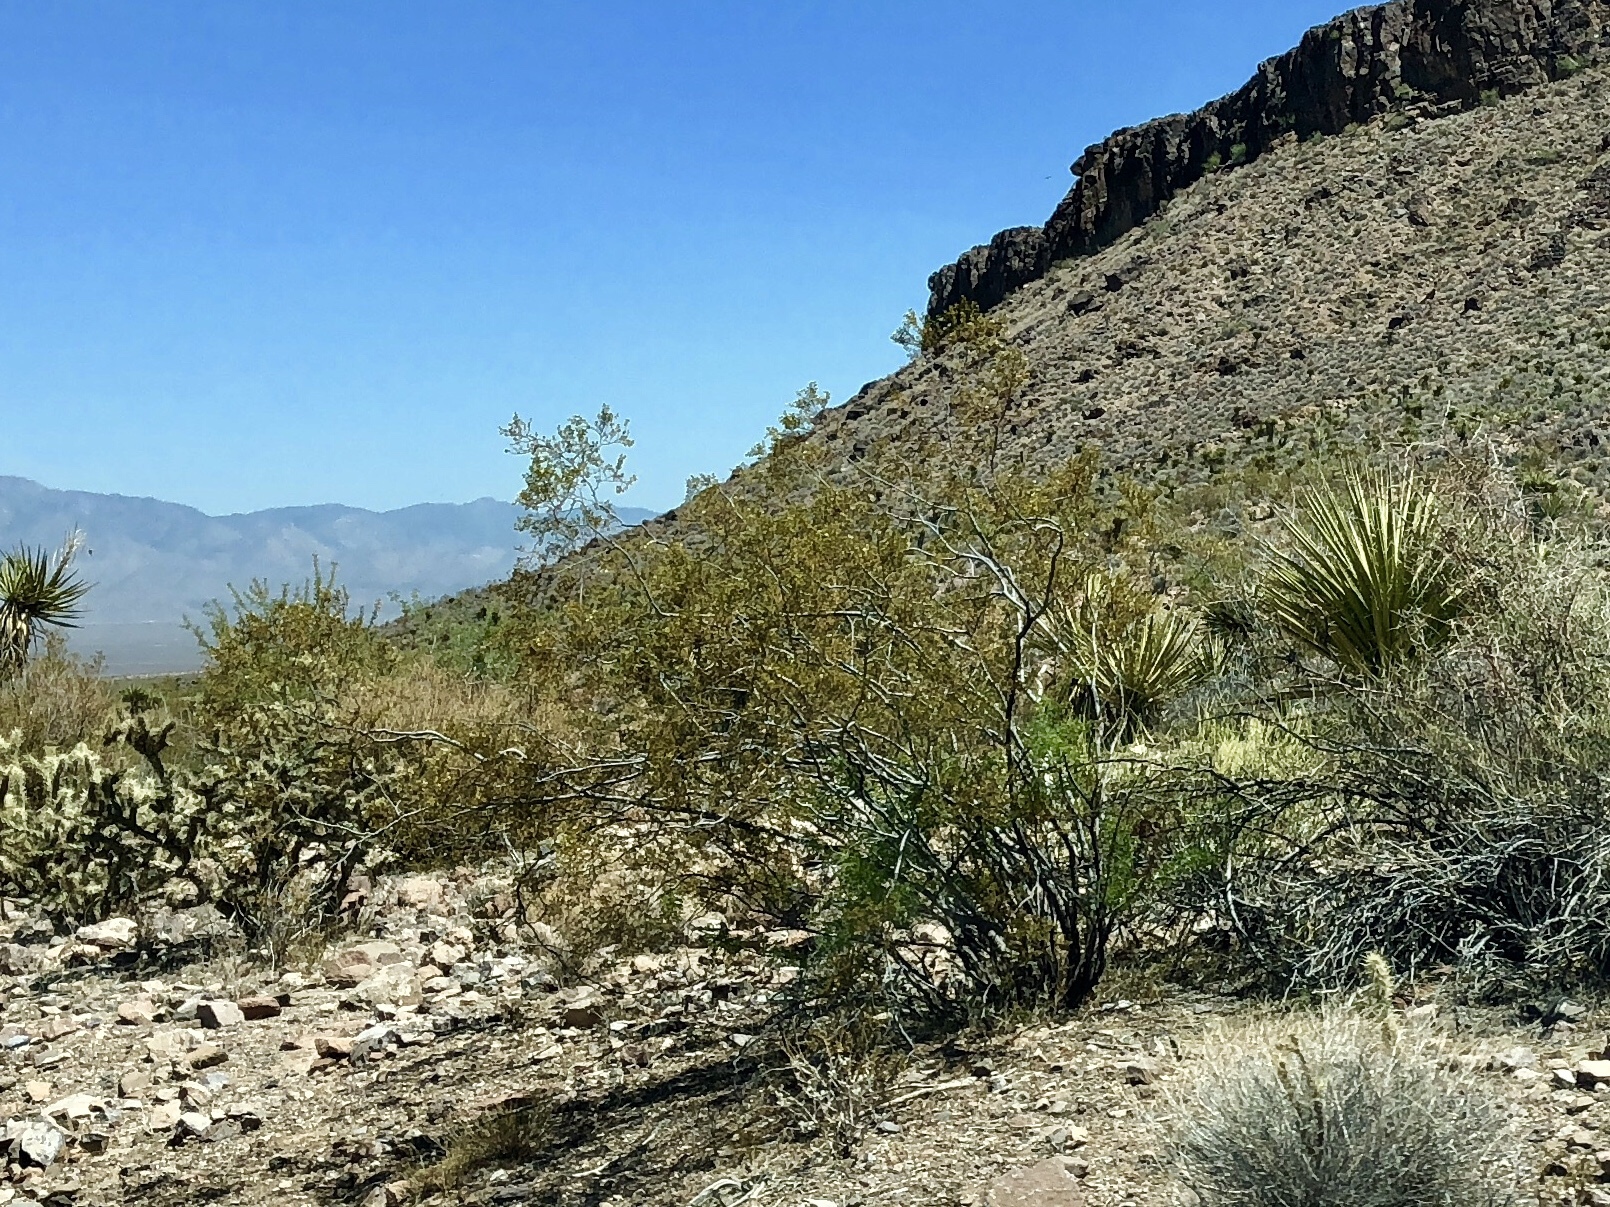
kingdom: Plantae
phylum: Tracheophyta
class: Magnoliopsida
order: Zygophyllales
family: Zygophyllaceae
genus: Larrea
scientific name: Larrea tridentata
